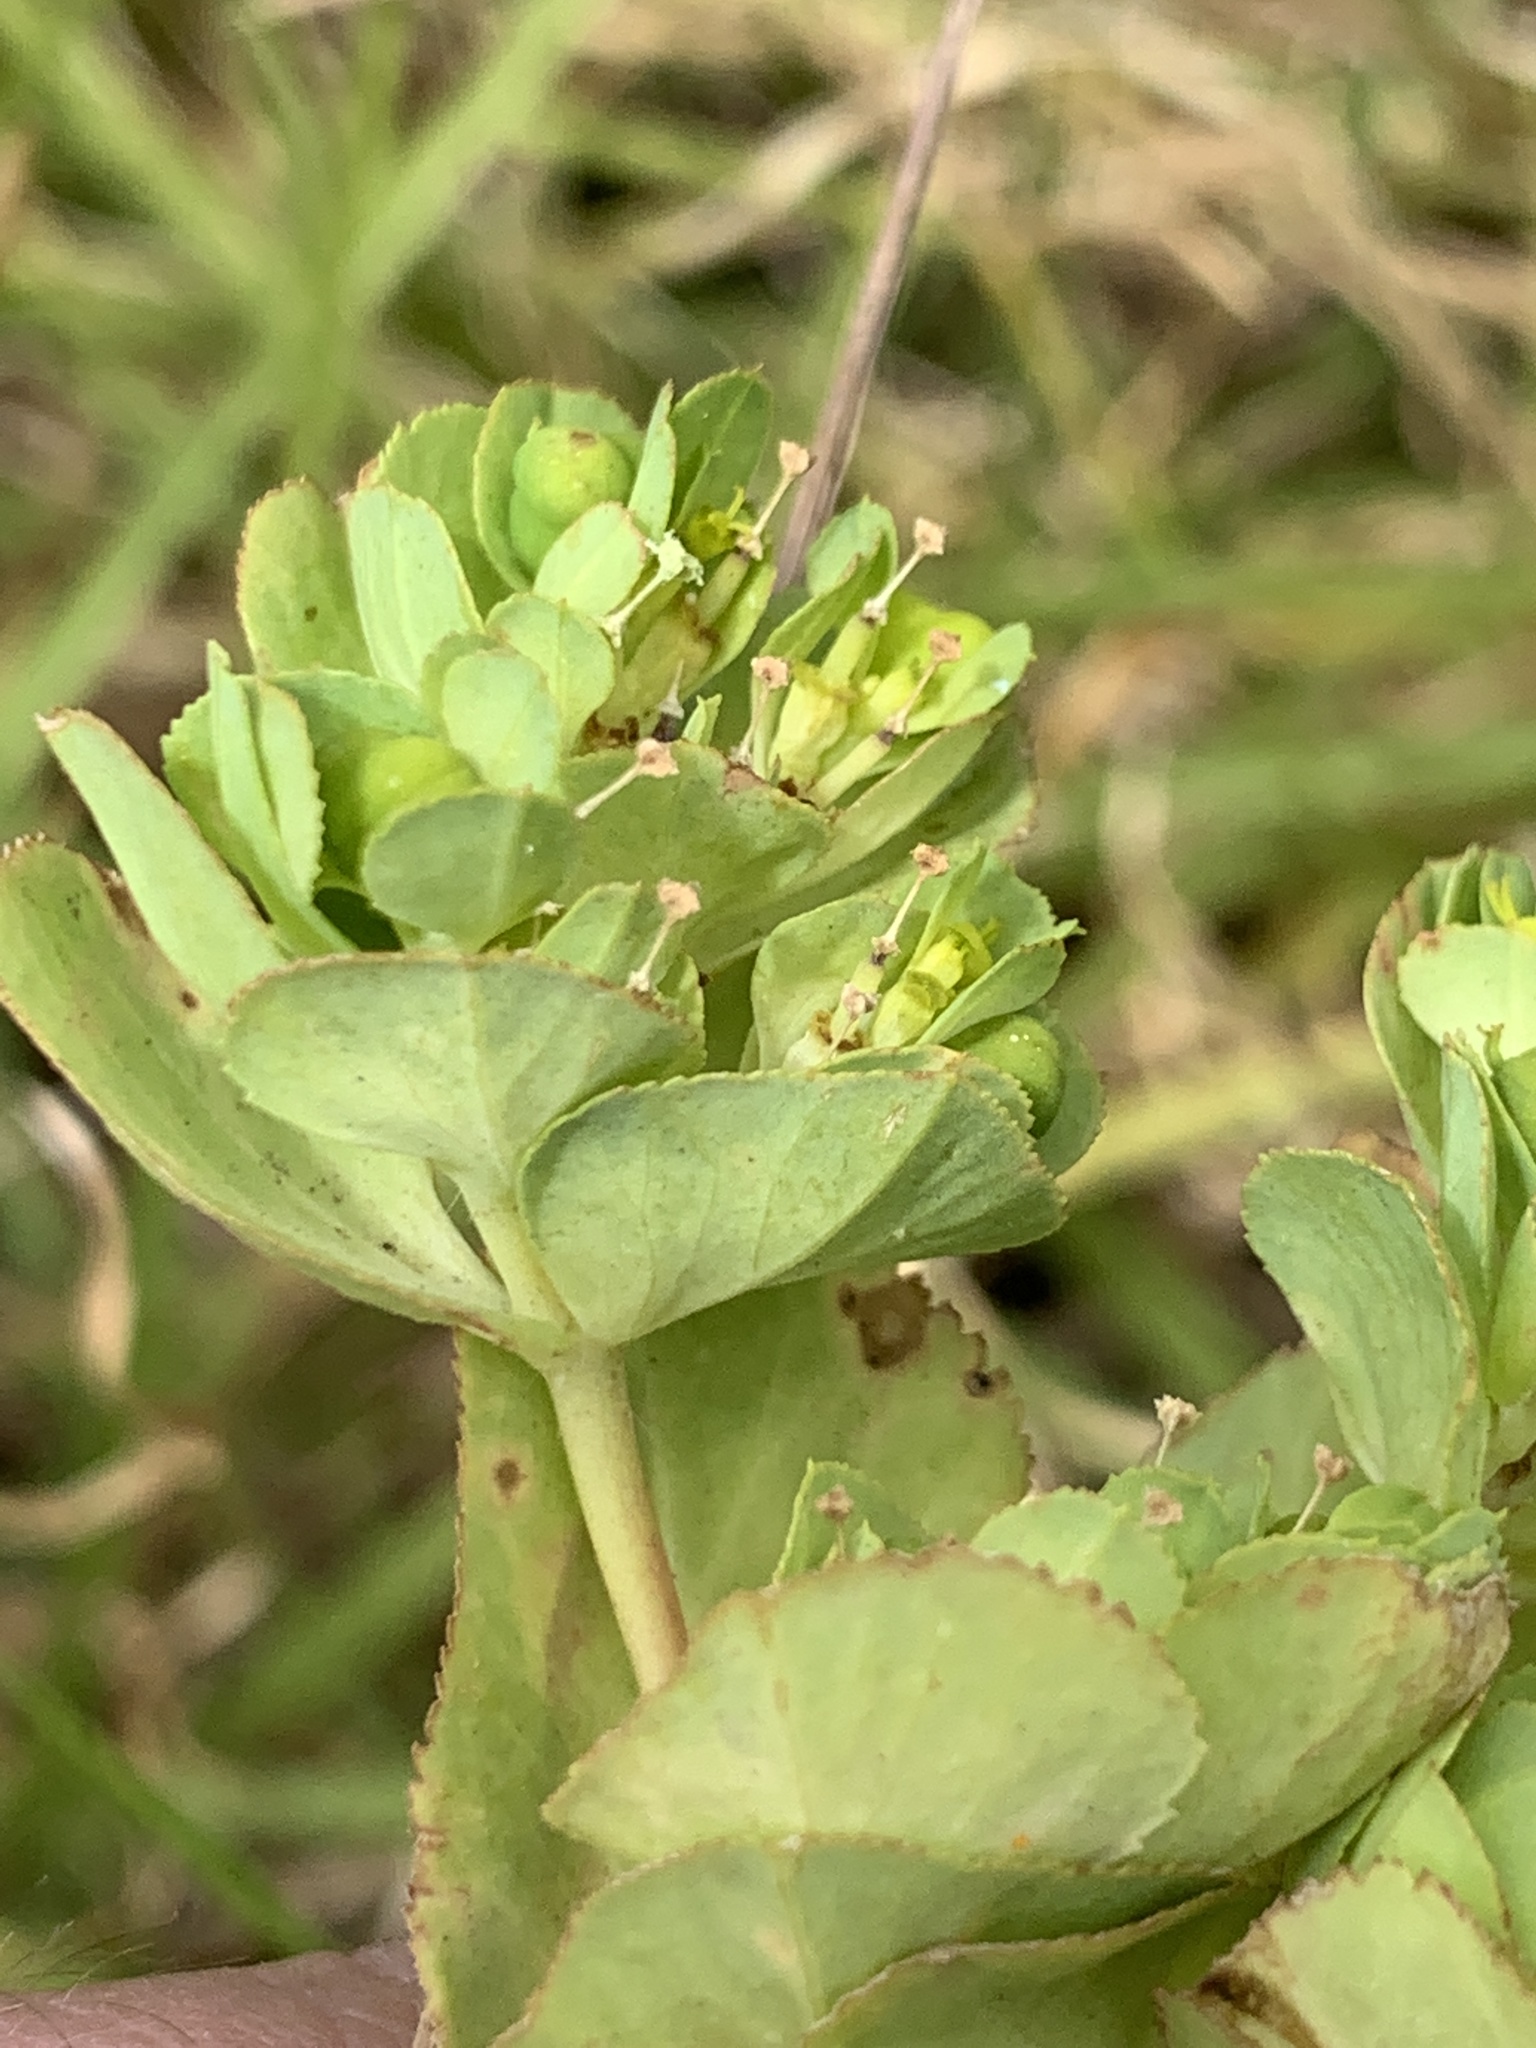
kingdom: Plantae
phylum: Tracheophyta
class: Magnoliopsida
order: Malpighiales
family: Euphorbiaceae
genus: Euphorbia
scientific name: Euphorbia helioscopia
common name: Sun spurge
